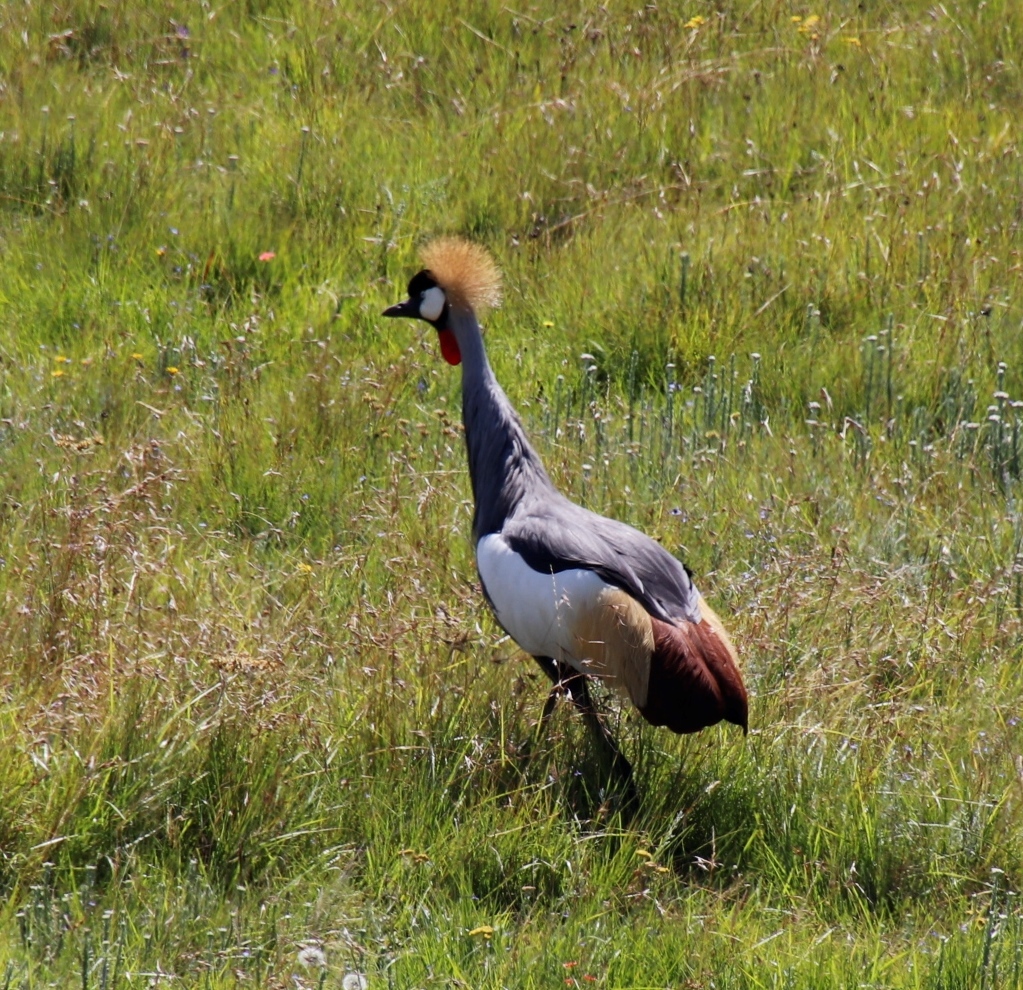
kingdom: Animalia
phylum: Chordata
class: Aves
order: Gruiformes
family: Gruidae
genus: Balearica
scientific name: Balearica regulorum
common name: Grey crowned crane
